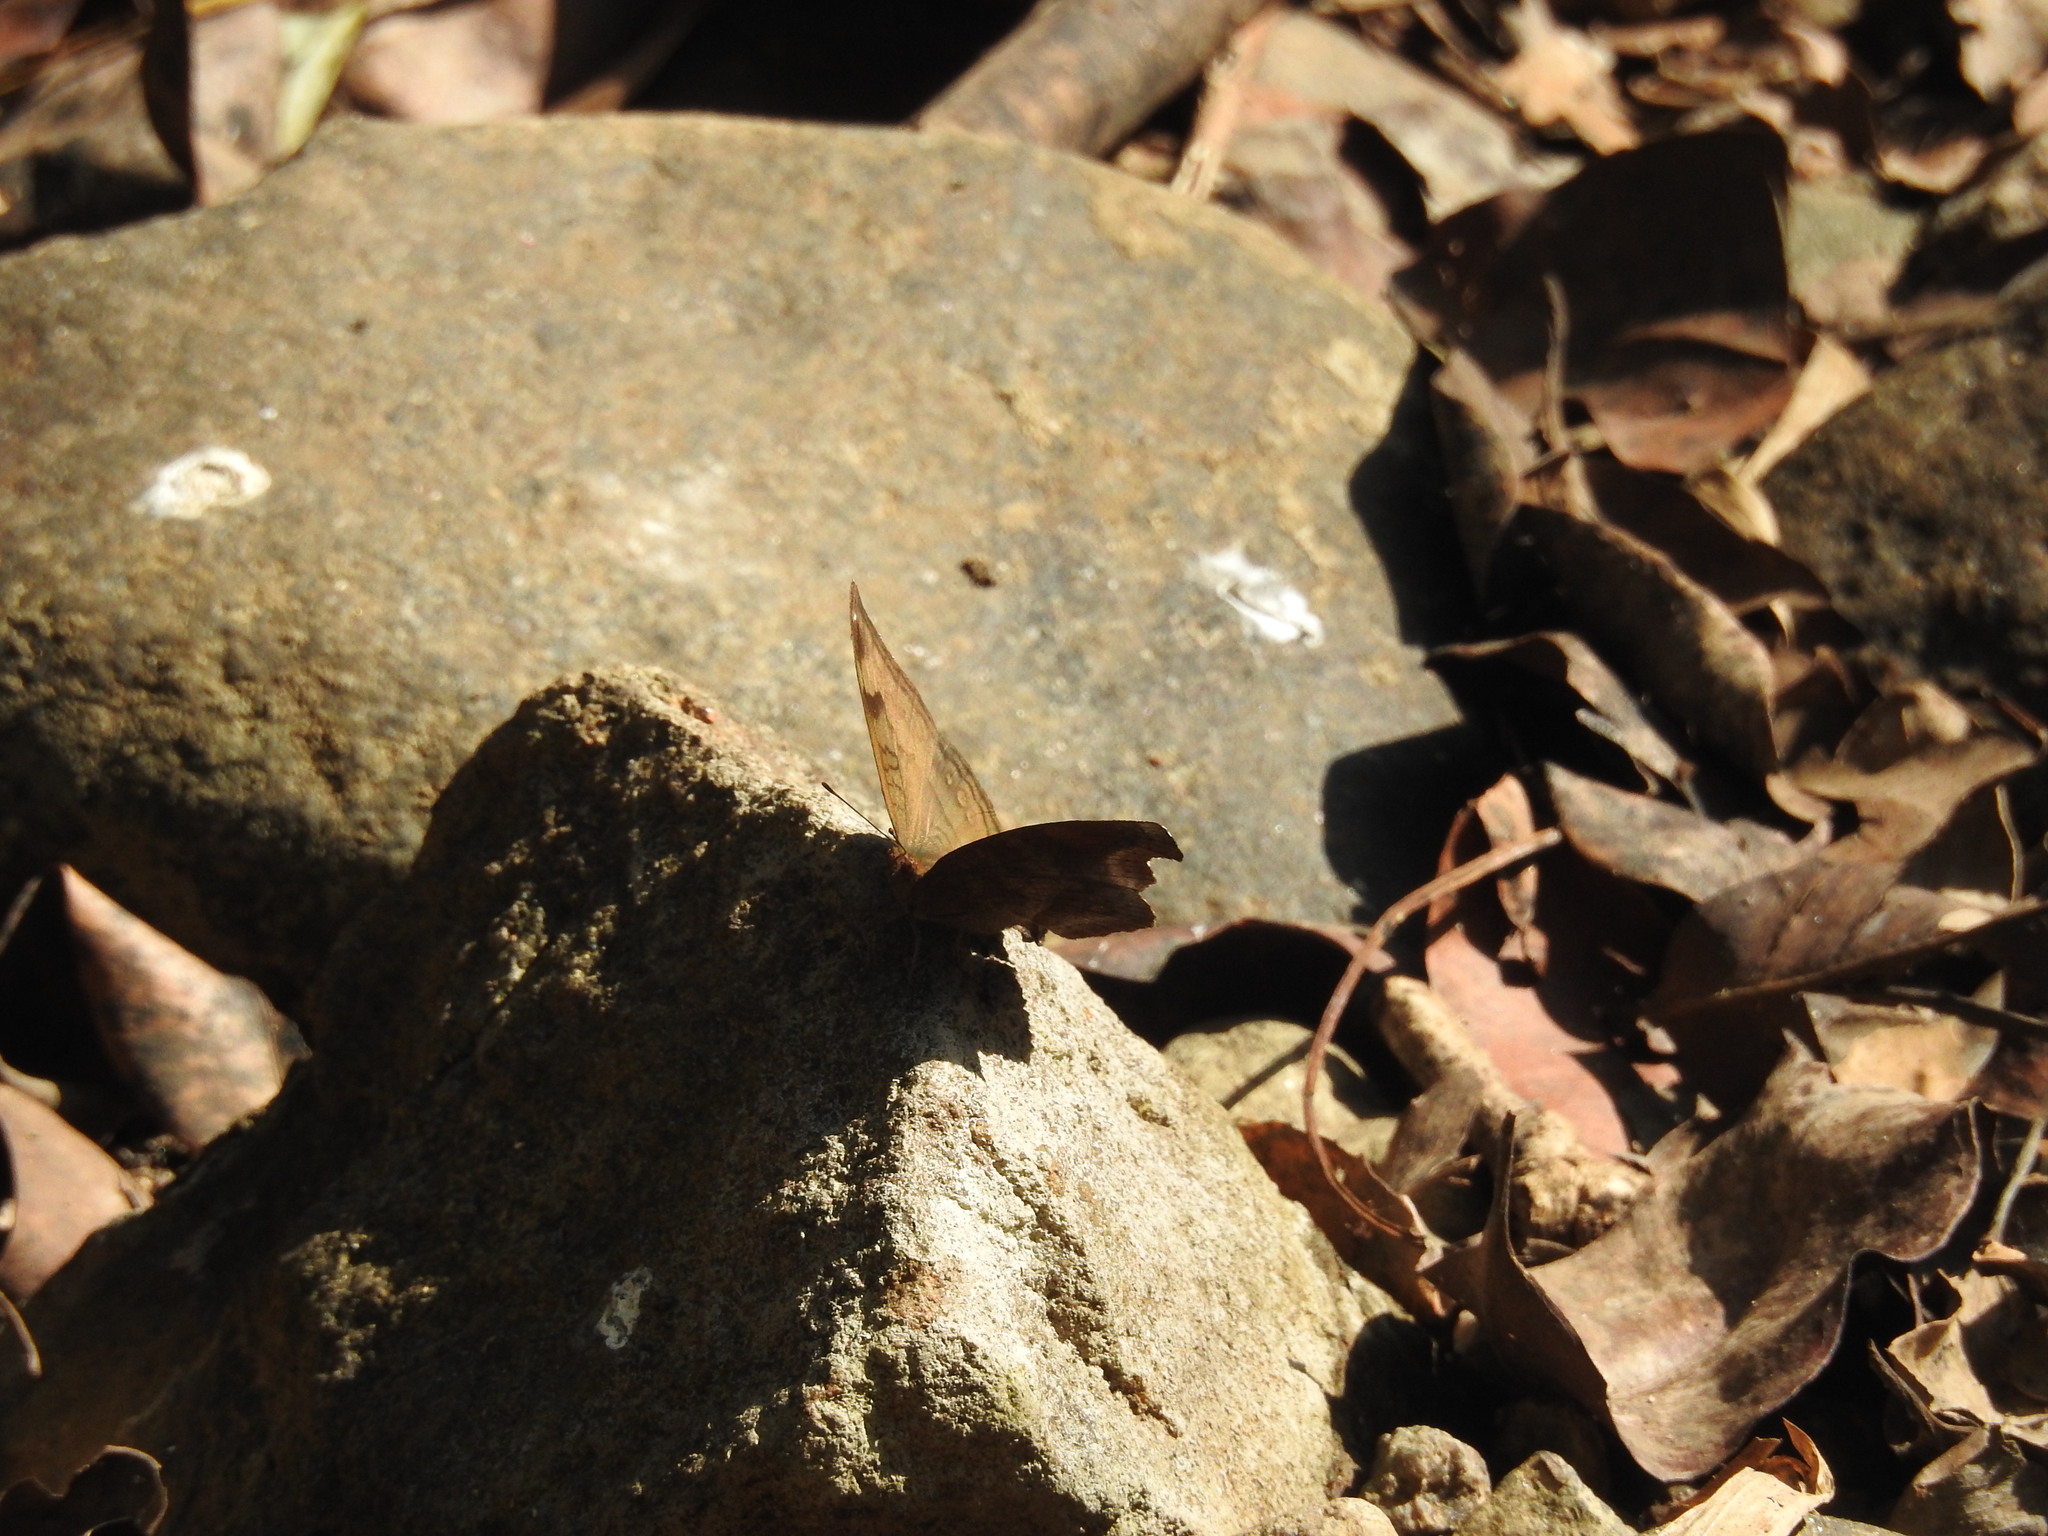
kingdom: Animalia
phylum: Arthropoda
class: Insecta
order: Lepidoptera
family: Nymphalidae
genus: Junonia
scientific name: Junonia iphita
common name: Chocolate pansy
